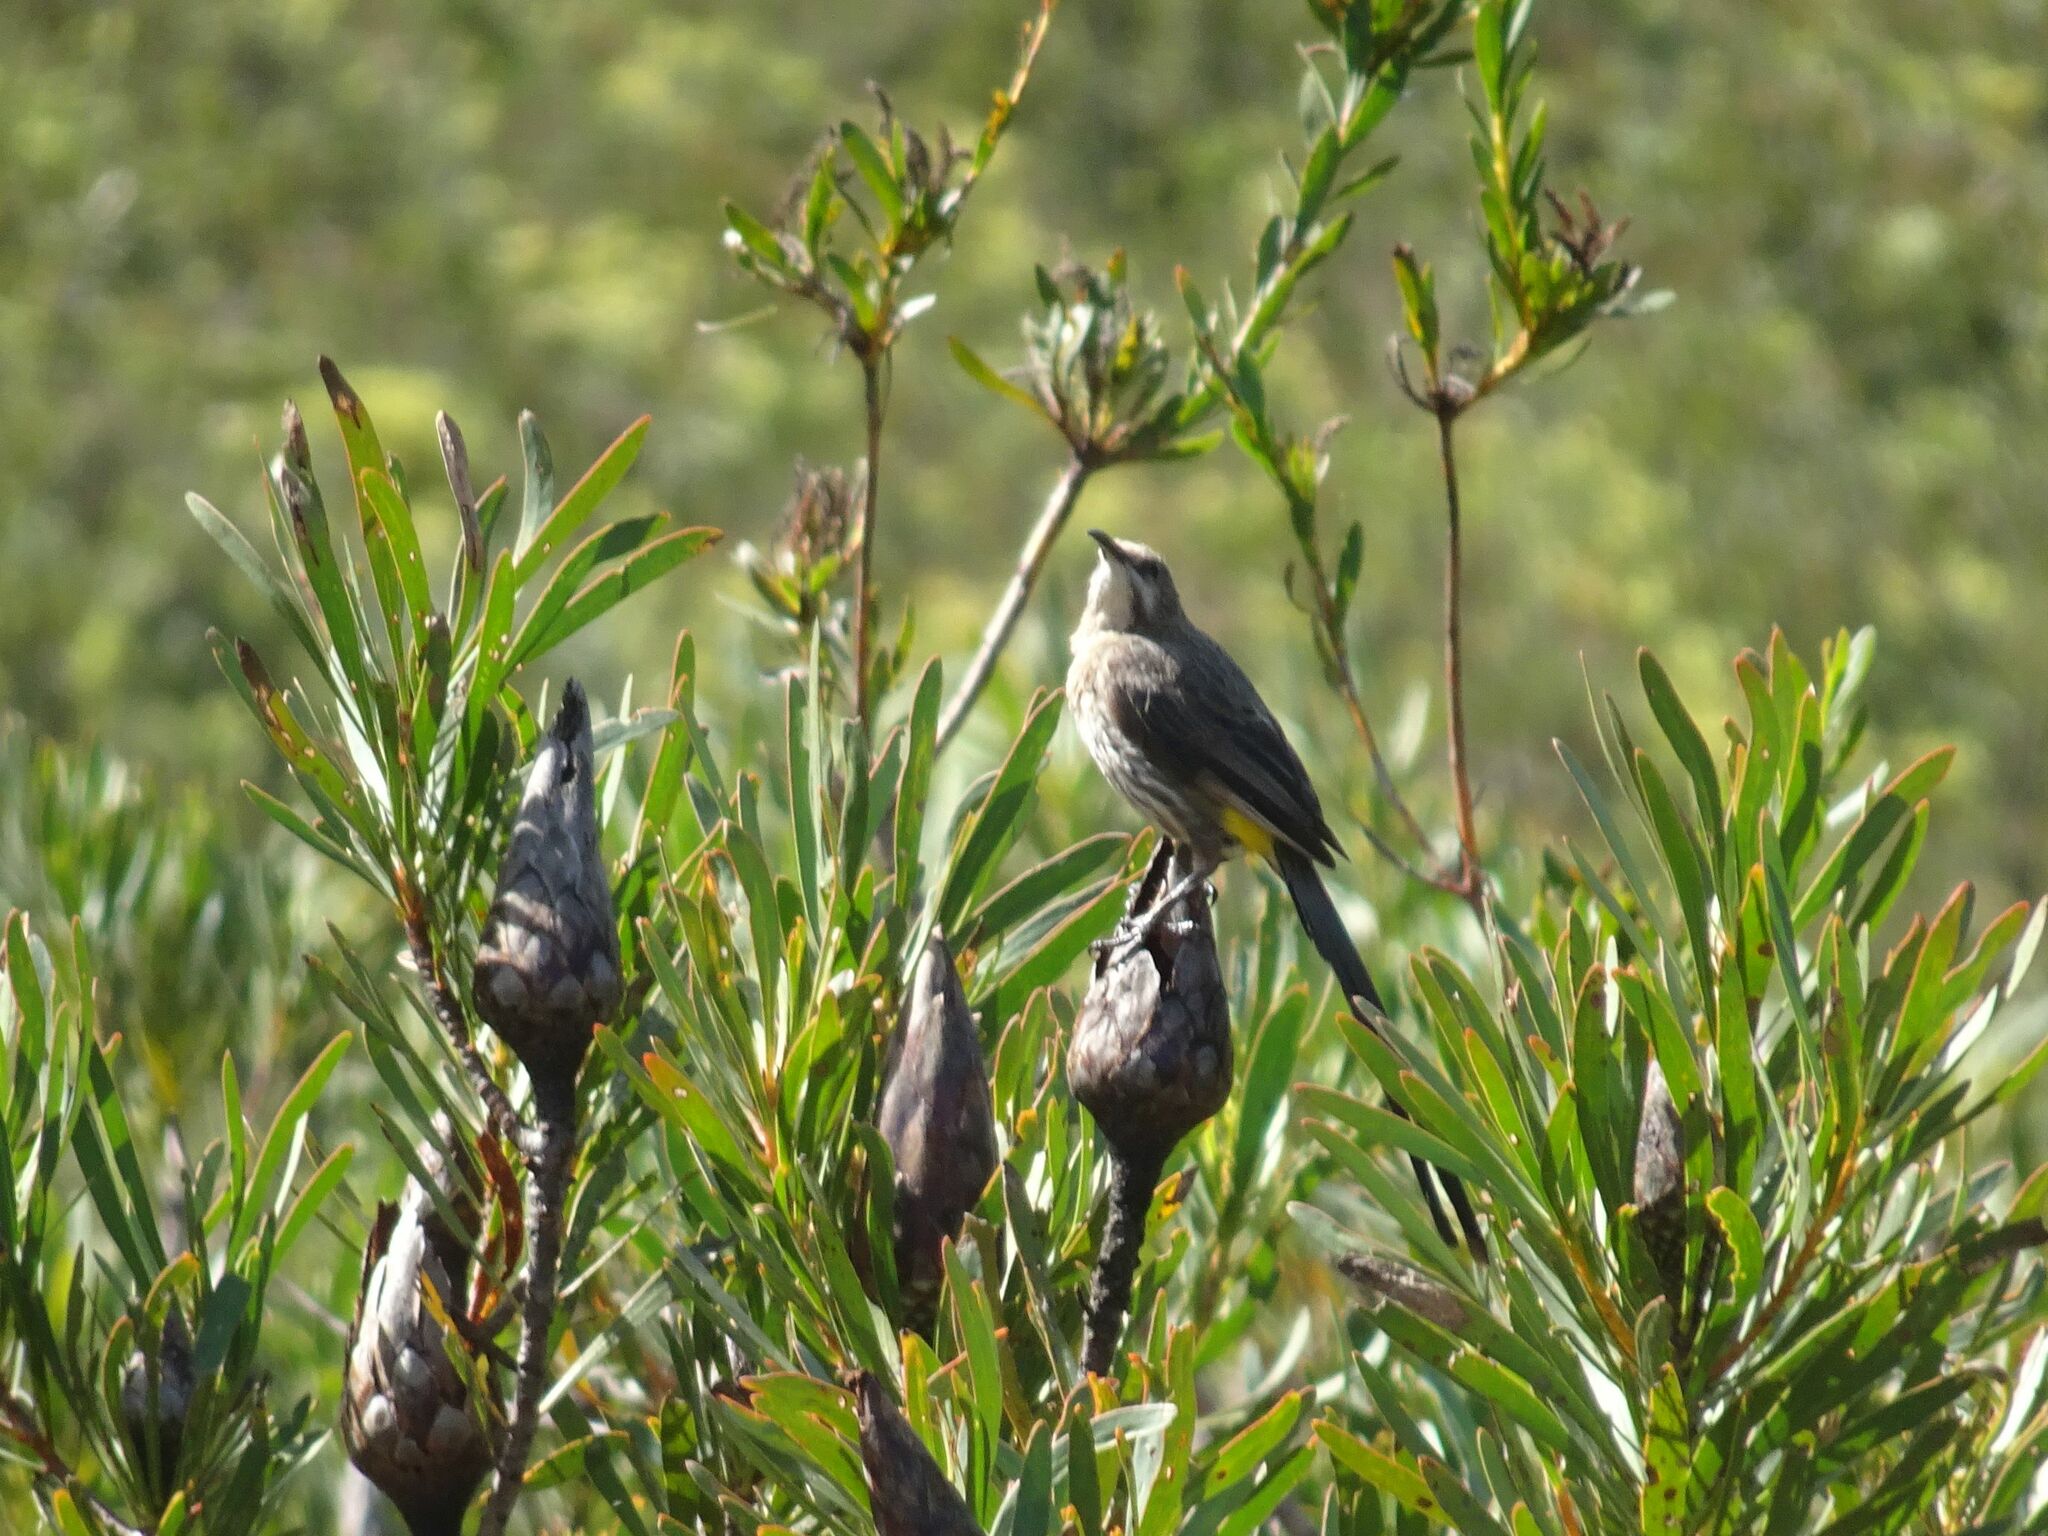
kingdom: Animalia
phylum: Chordata
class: Aves
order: Passeriformes
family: Promeropidae
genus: Promerops
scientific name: Promerops cafer
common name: Cape sugarbird
